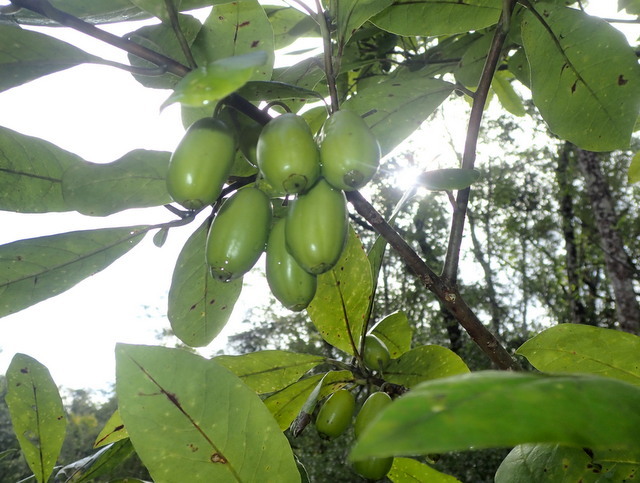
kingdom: Plantae
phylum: Tracheophyta
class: Magnoliopsida
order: Cornales
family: Nyssaceae
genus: Nyssa
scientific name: Nyssa ogeche
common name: Ogeechee tupelo
